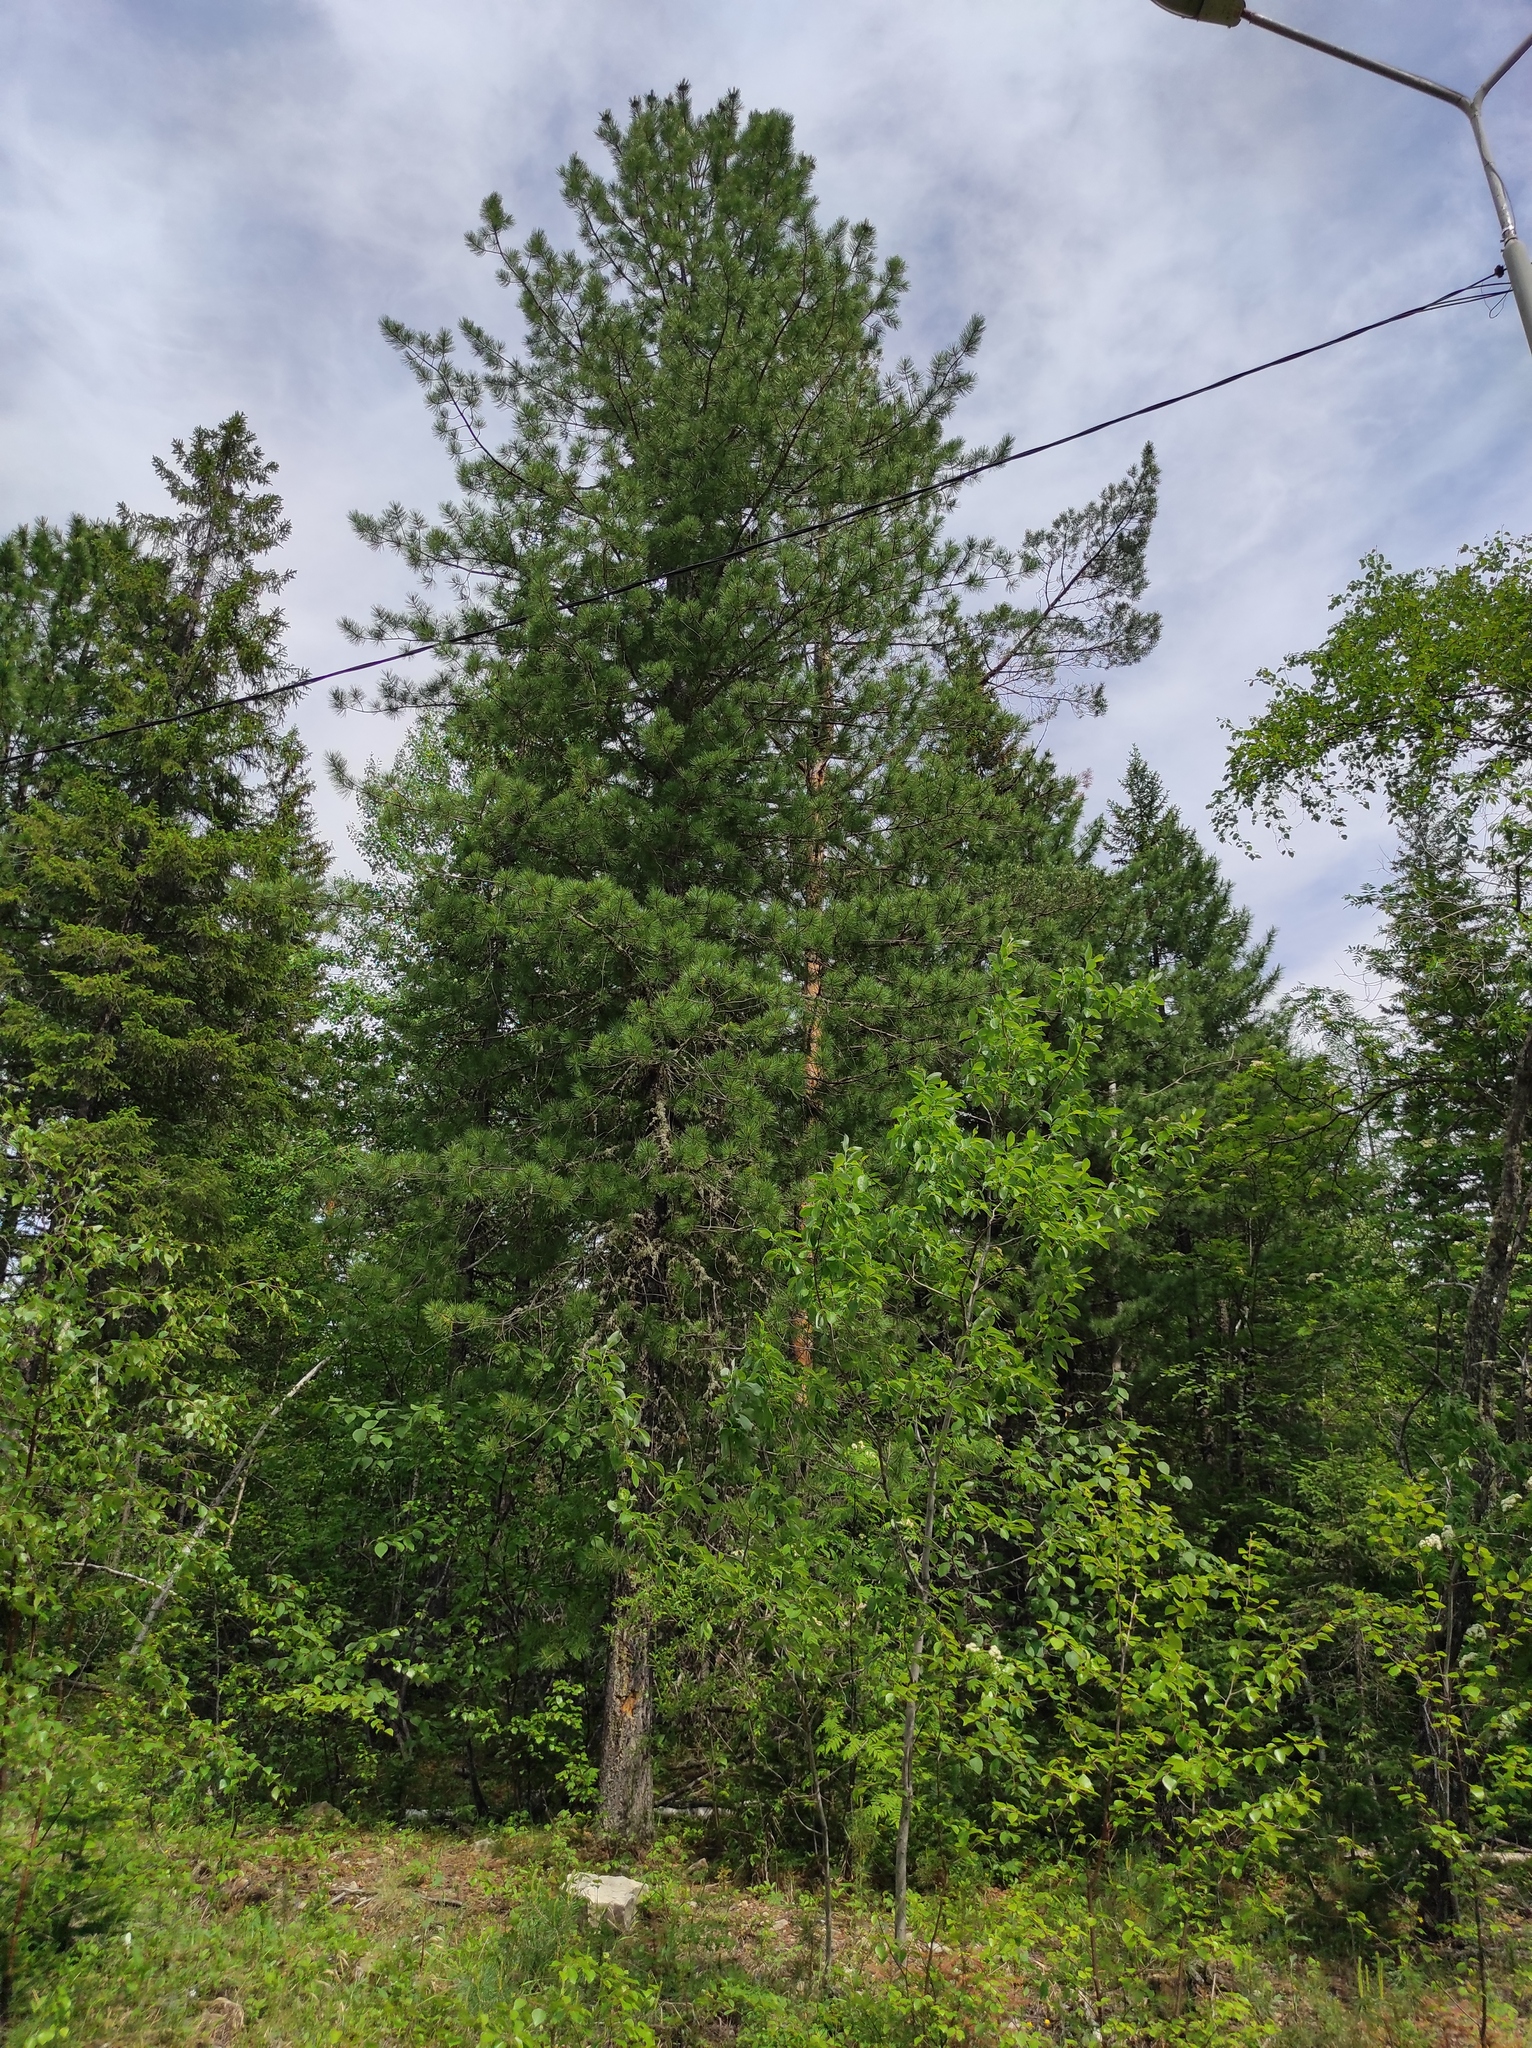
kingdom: Plantae
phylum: Tracheophyta
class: Pinopsida
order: Pinales
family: Pinaceae
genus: Pinus
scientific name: Pinus sibirica
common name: Siberian pine
